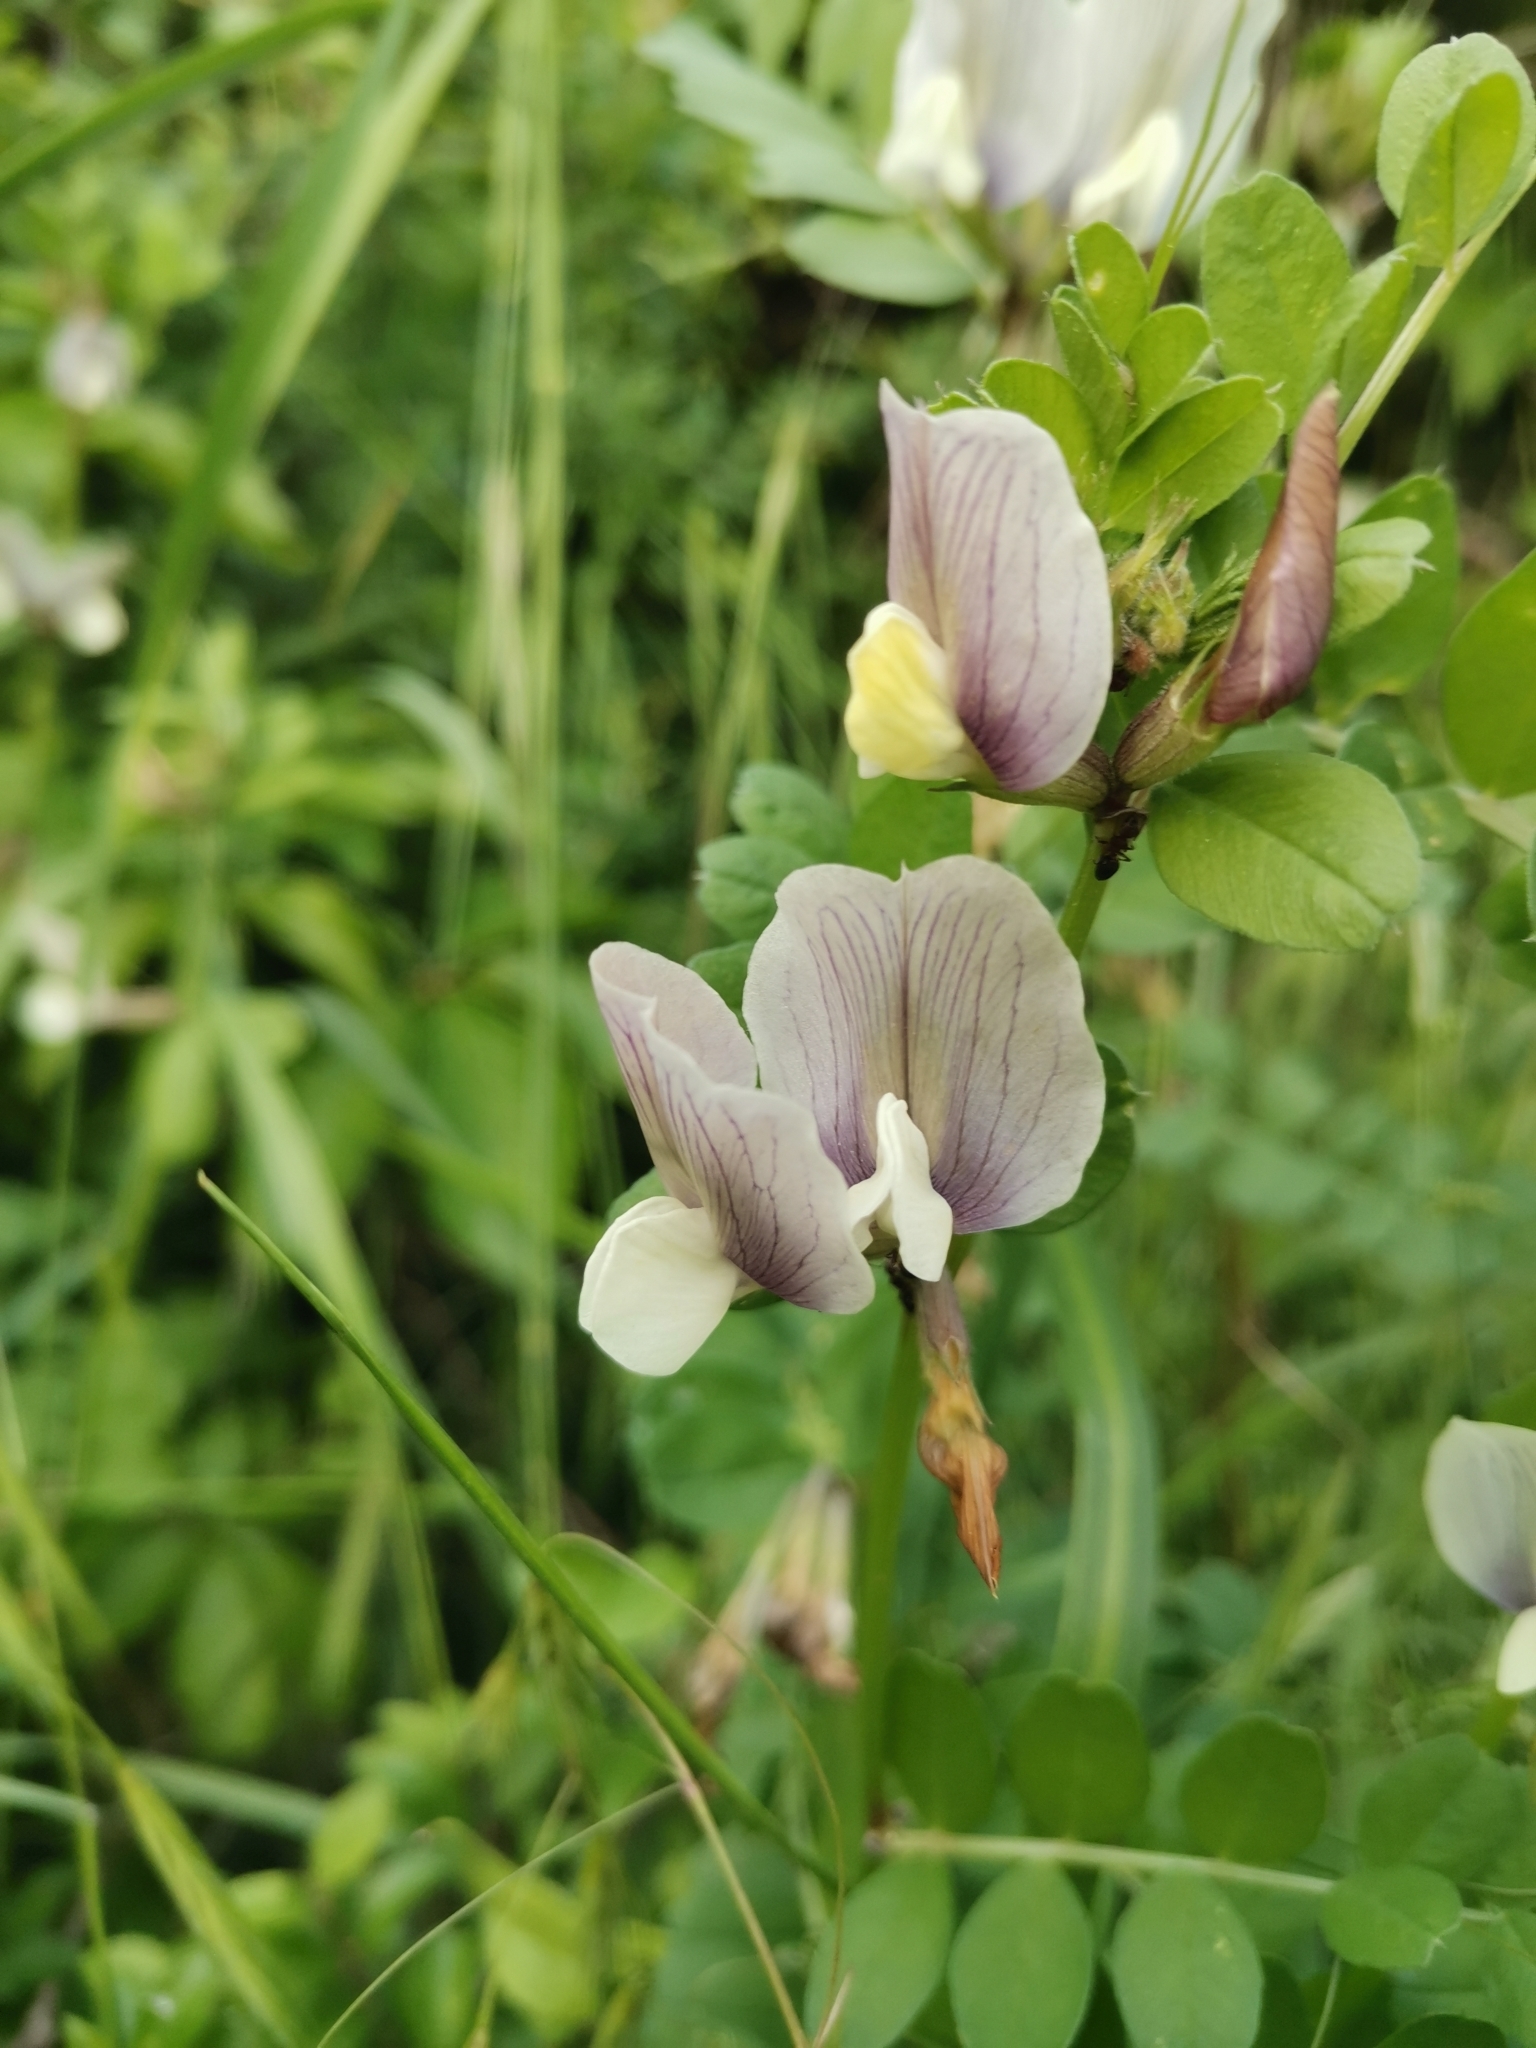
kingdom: Plantae
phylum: Tracheophyta
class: Magnoliopsida
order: Fabales
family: Fabaceae
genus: Vicia
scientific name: Vicia grandiflora
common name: Large yellow vetch
